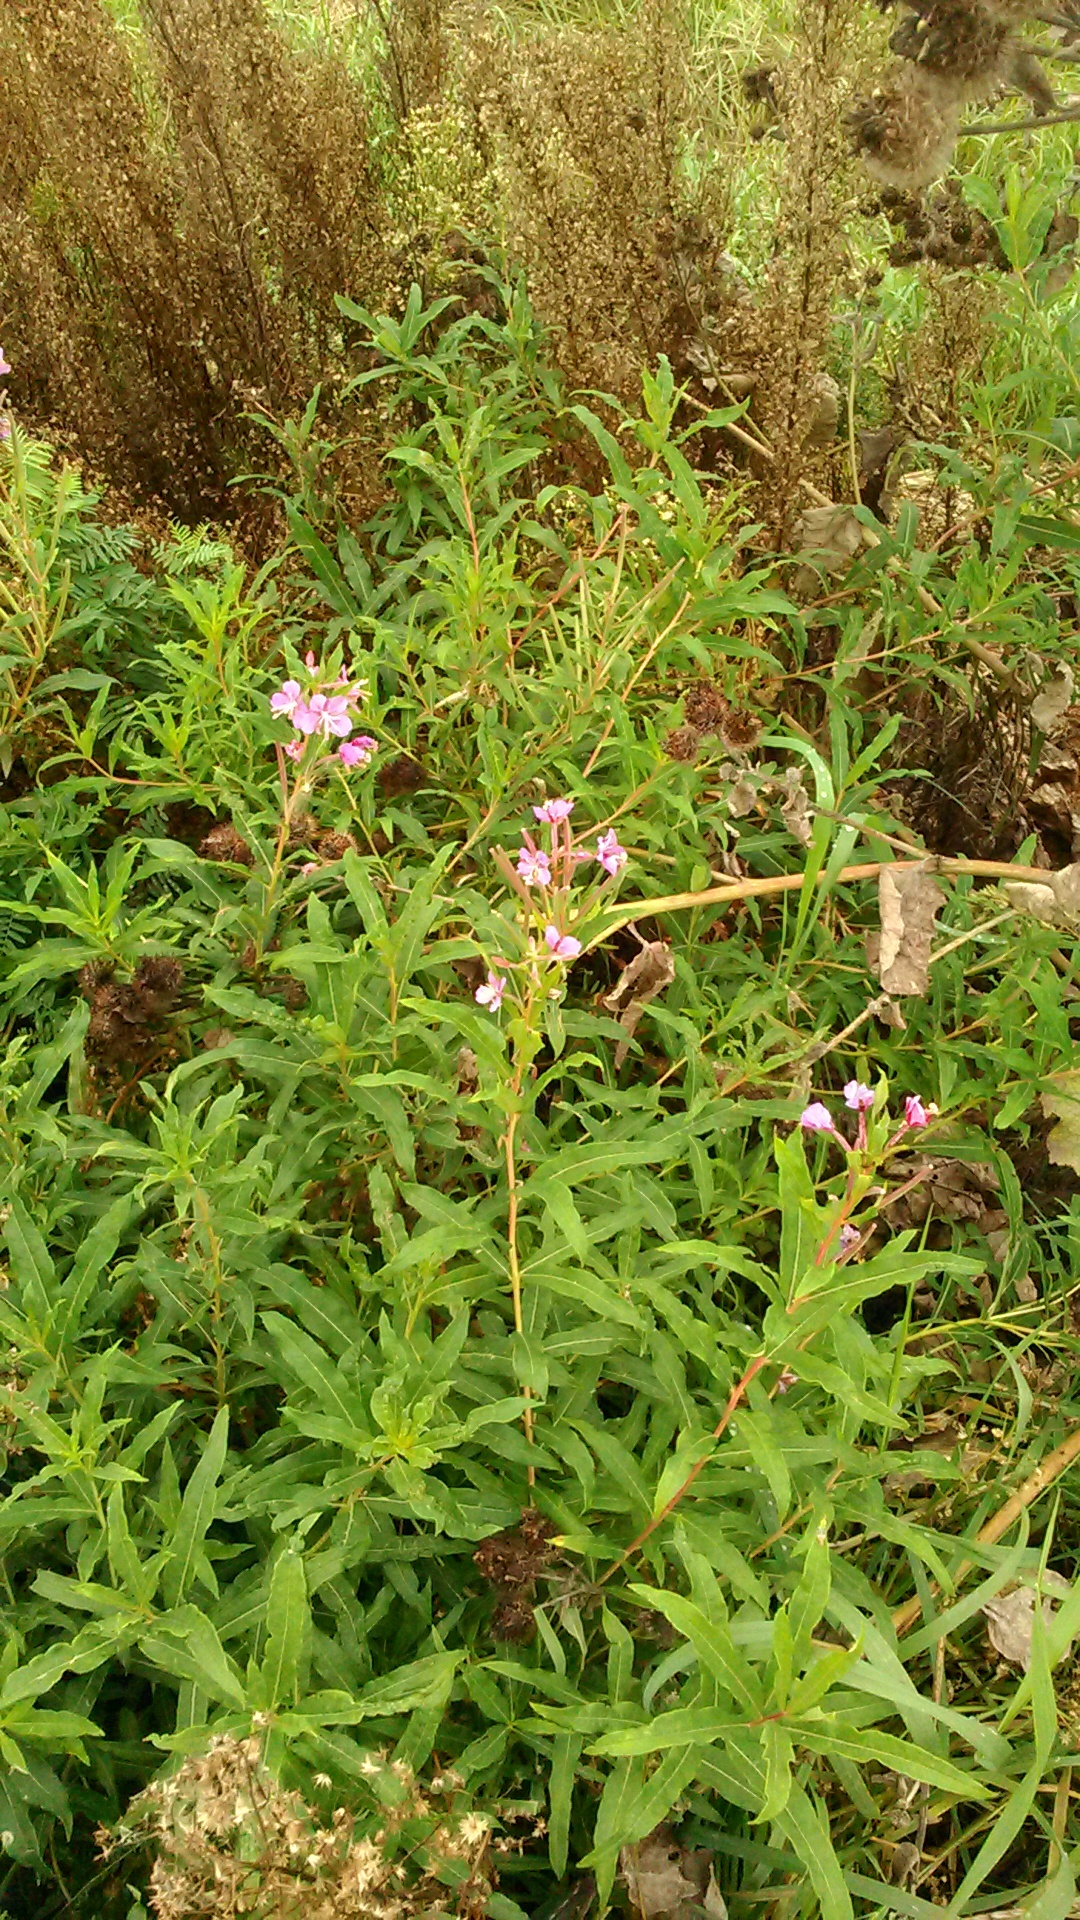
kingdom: Plantae
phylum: Tracheophyta
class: Magnoliopsida
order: Myrtales
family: Onagraceae
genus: Chamaenerion
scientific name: Chamaenerion angustifolium
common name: Fireweed
